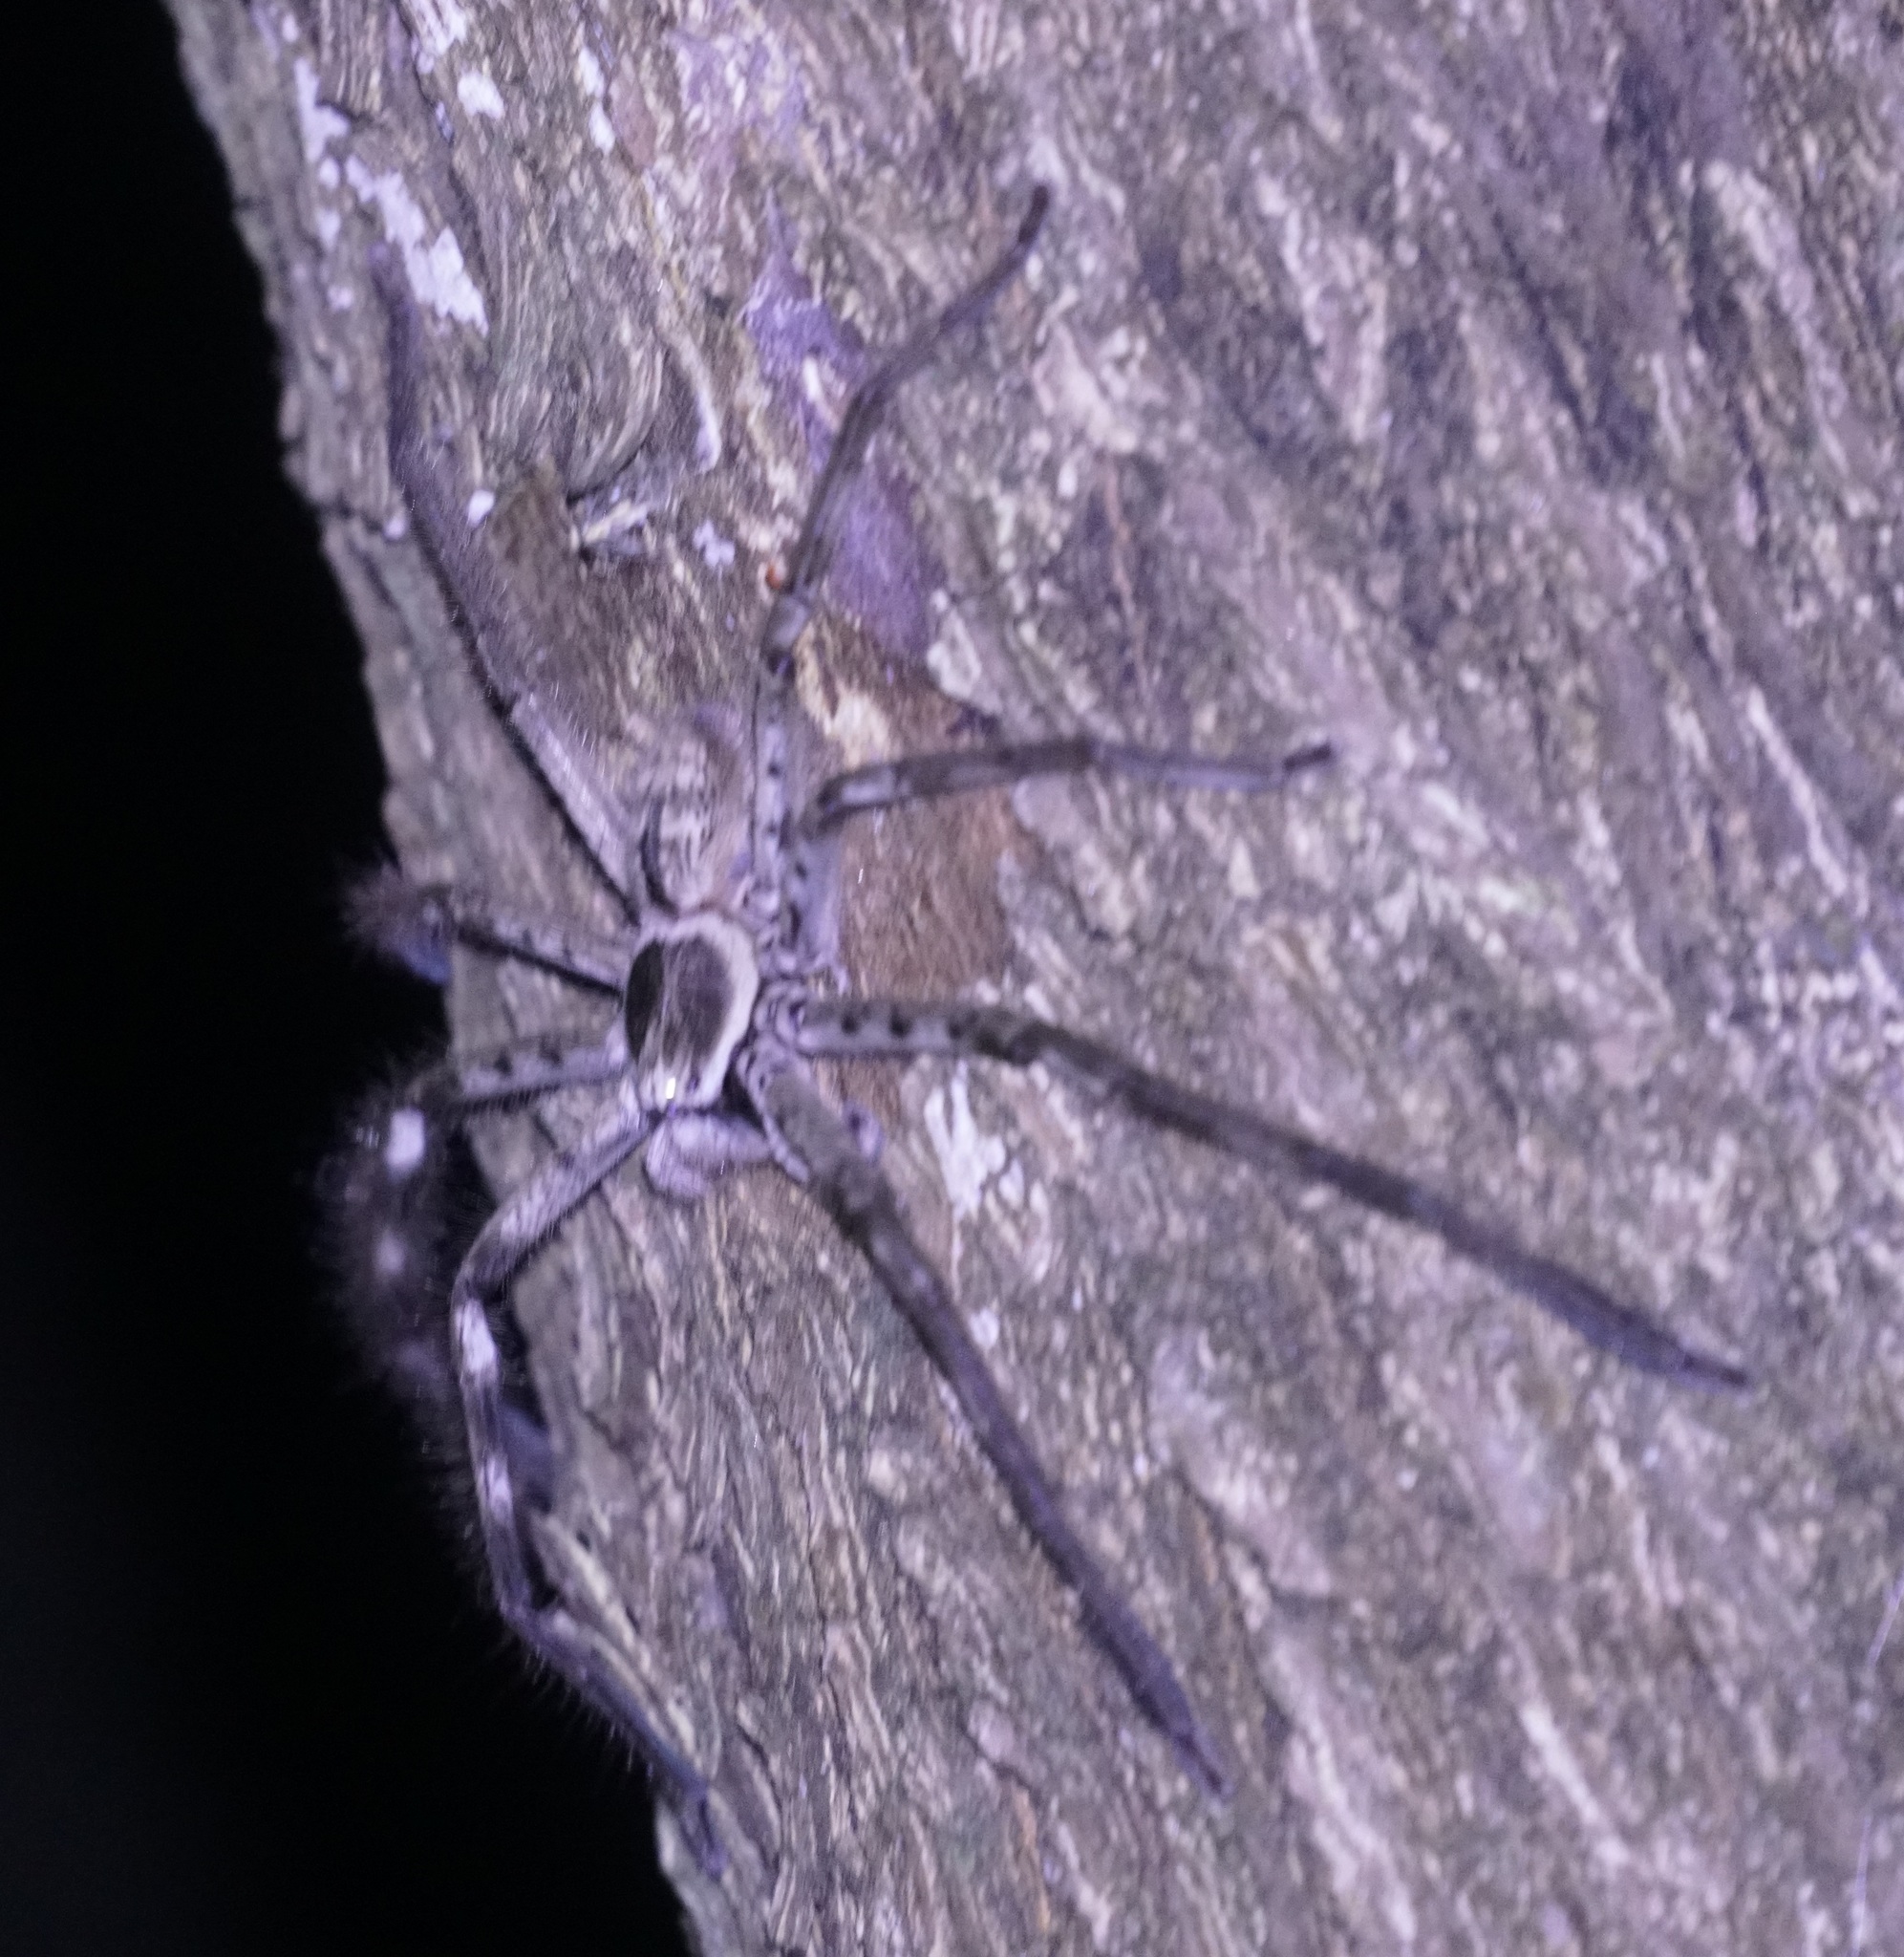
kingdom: Animalia
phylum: Arthropoda
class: Arachnida
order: Araneae
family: Sparassidae
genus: Holconia
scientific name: Holconia immanis
